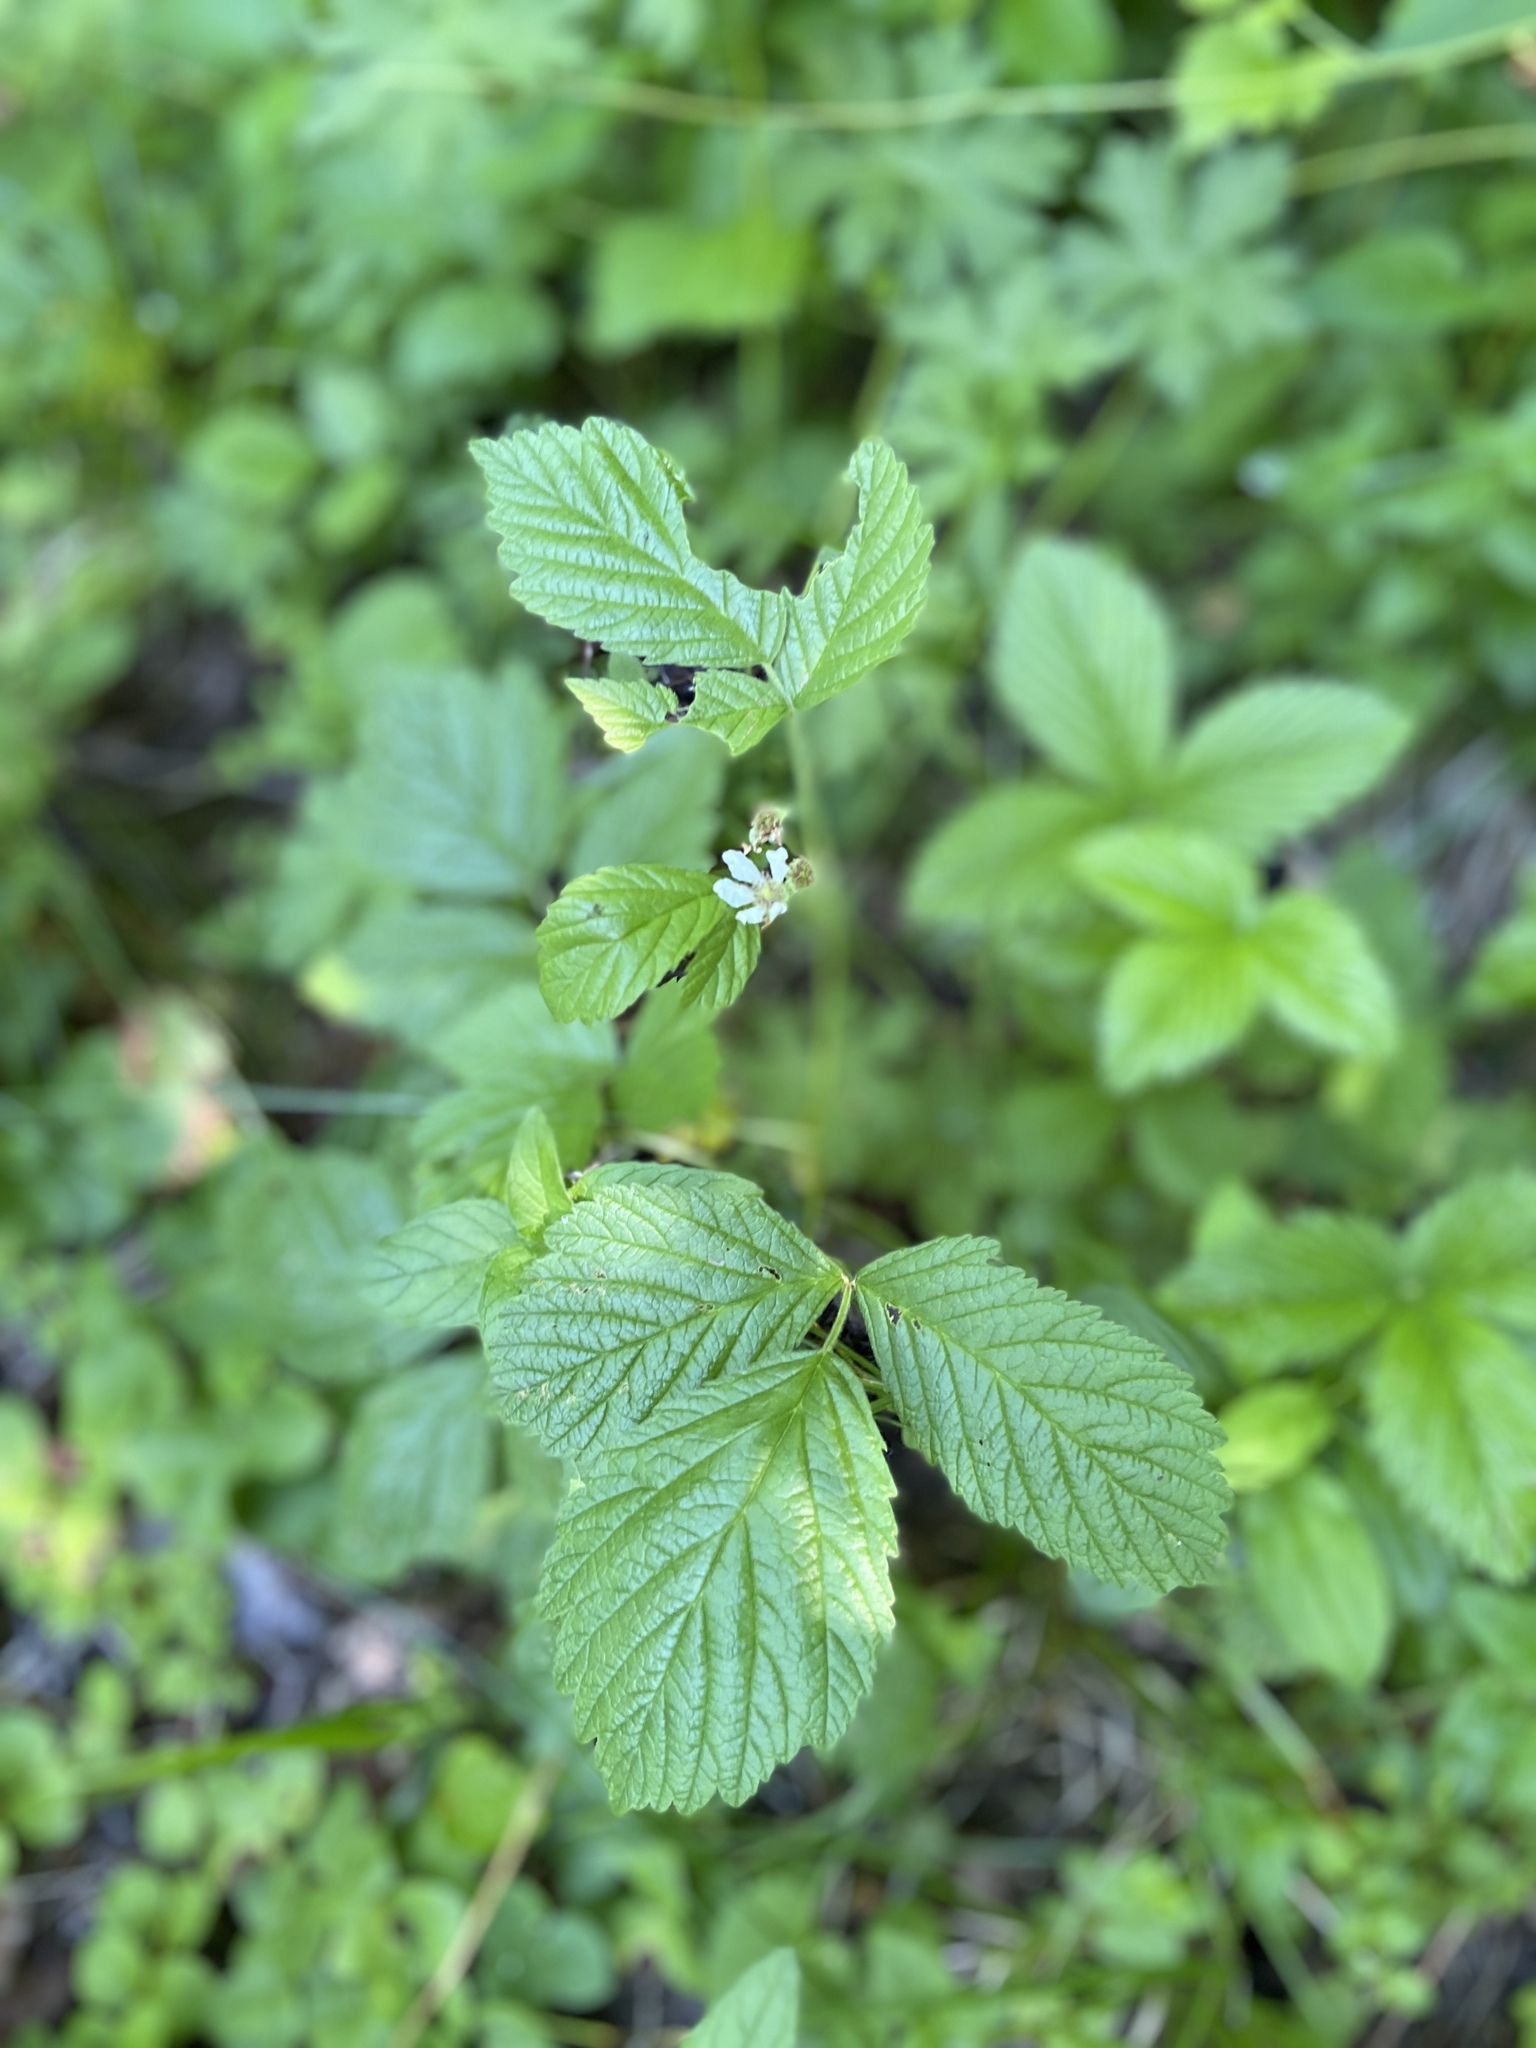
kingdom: Plantae
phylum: Tracheophyta
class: Magnoliopsida
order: Rosales
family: Rosaceae
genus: Rubus
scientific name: Rubus saxatilis
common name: Stone bramble
